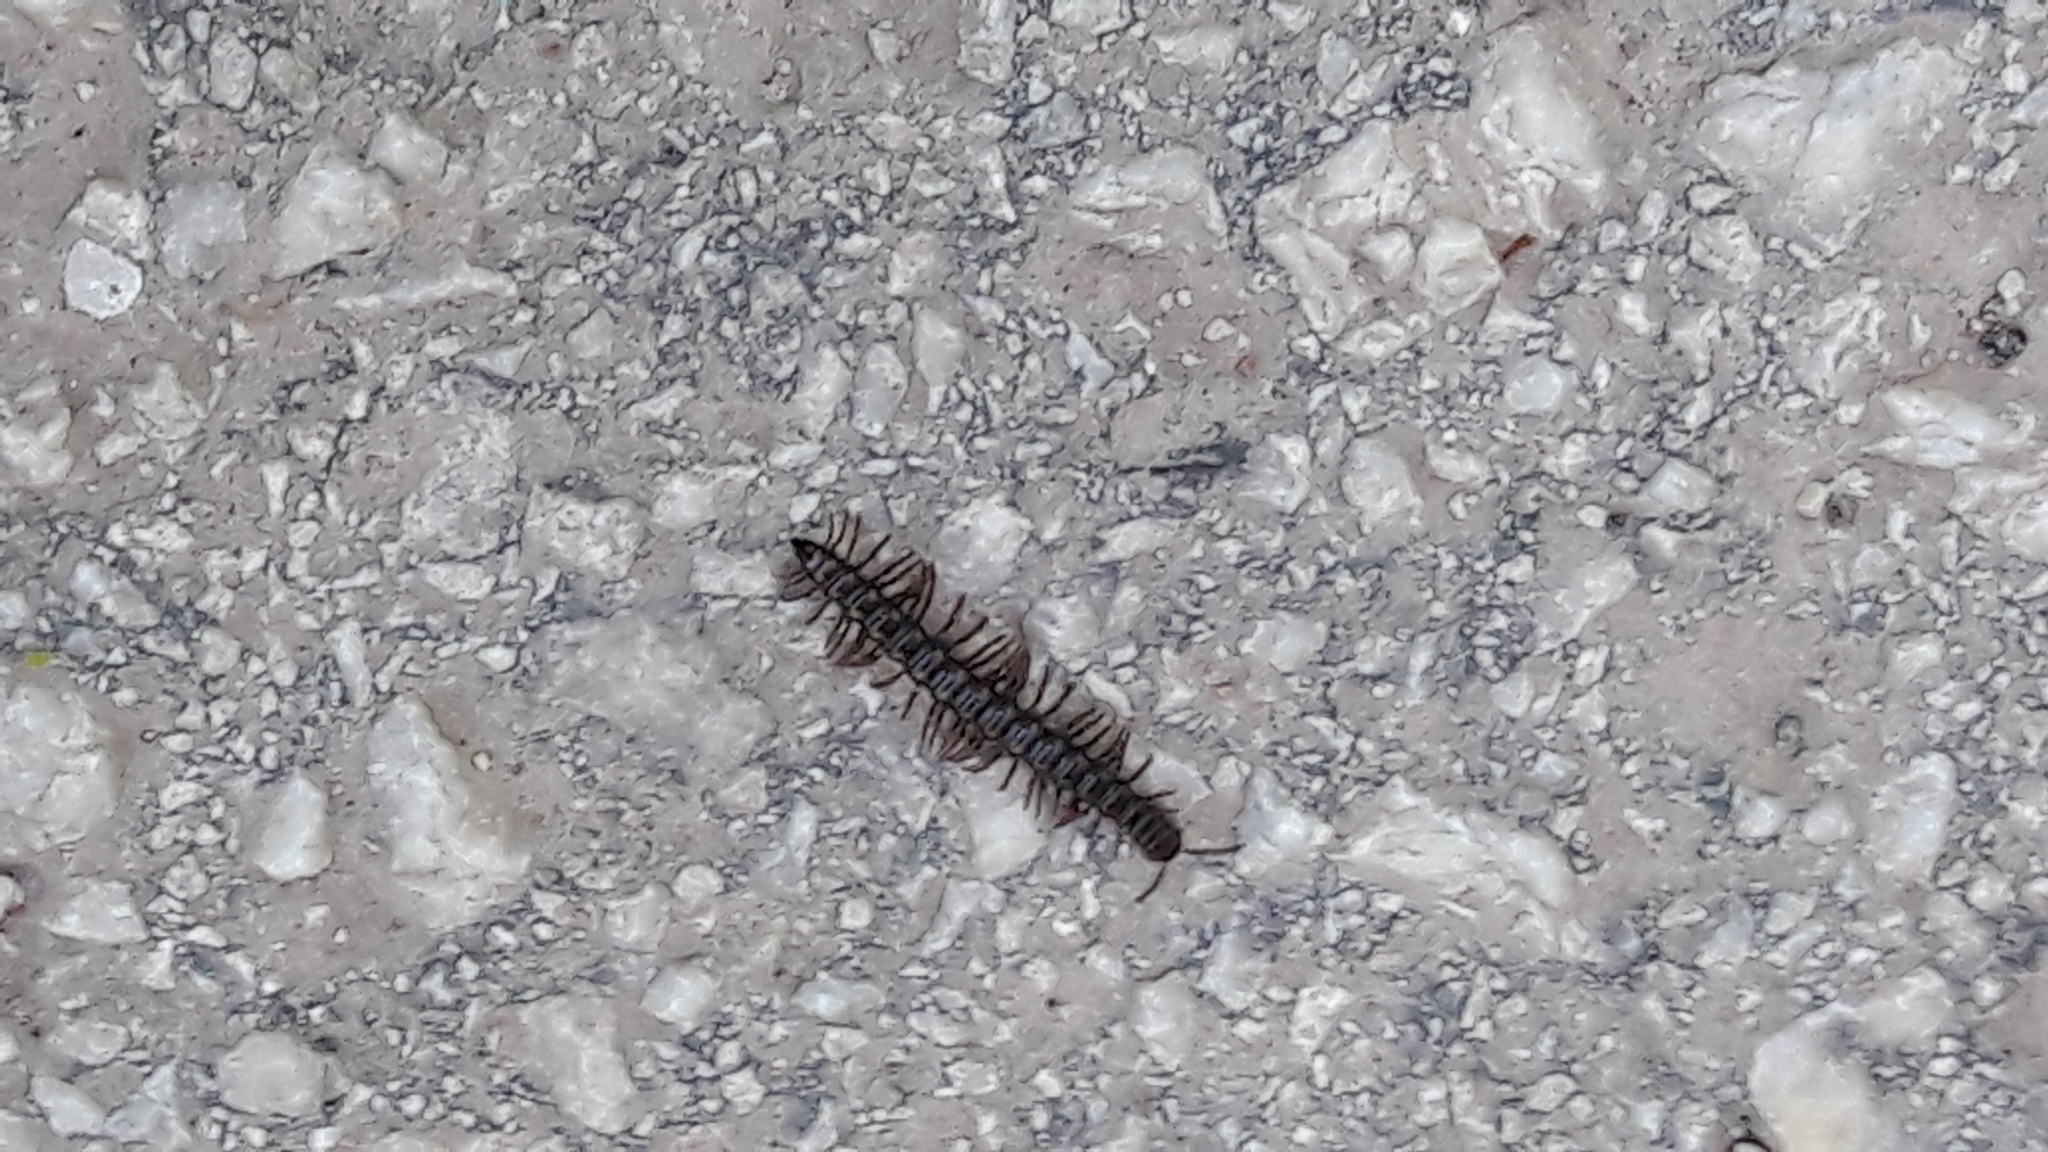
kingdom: Animalia
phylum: Arthropoda
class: Diplopoda
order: Polydesmida
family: Paradoxosomatidae
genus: Strongylosoma
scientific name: Strongylosoma stigmatosus
